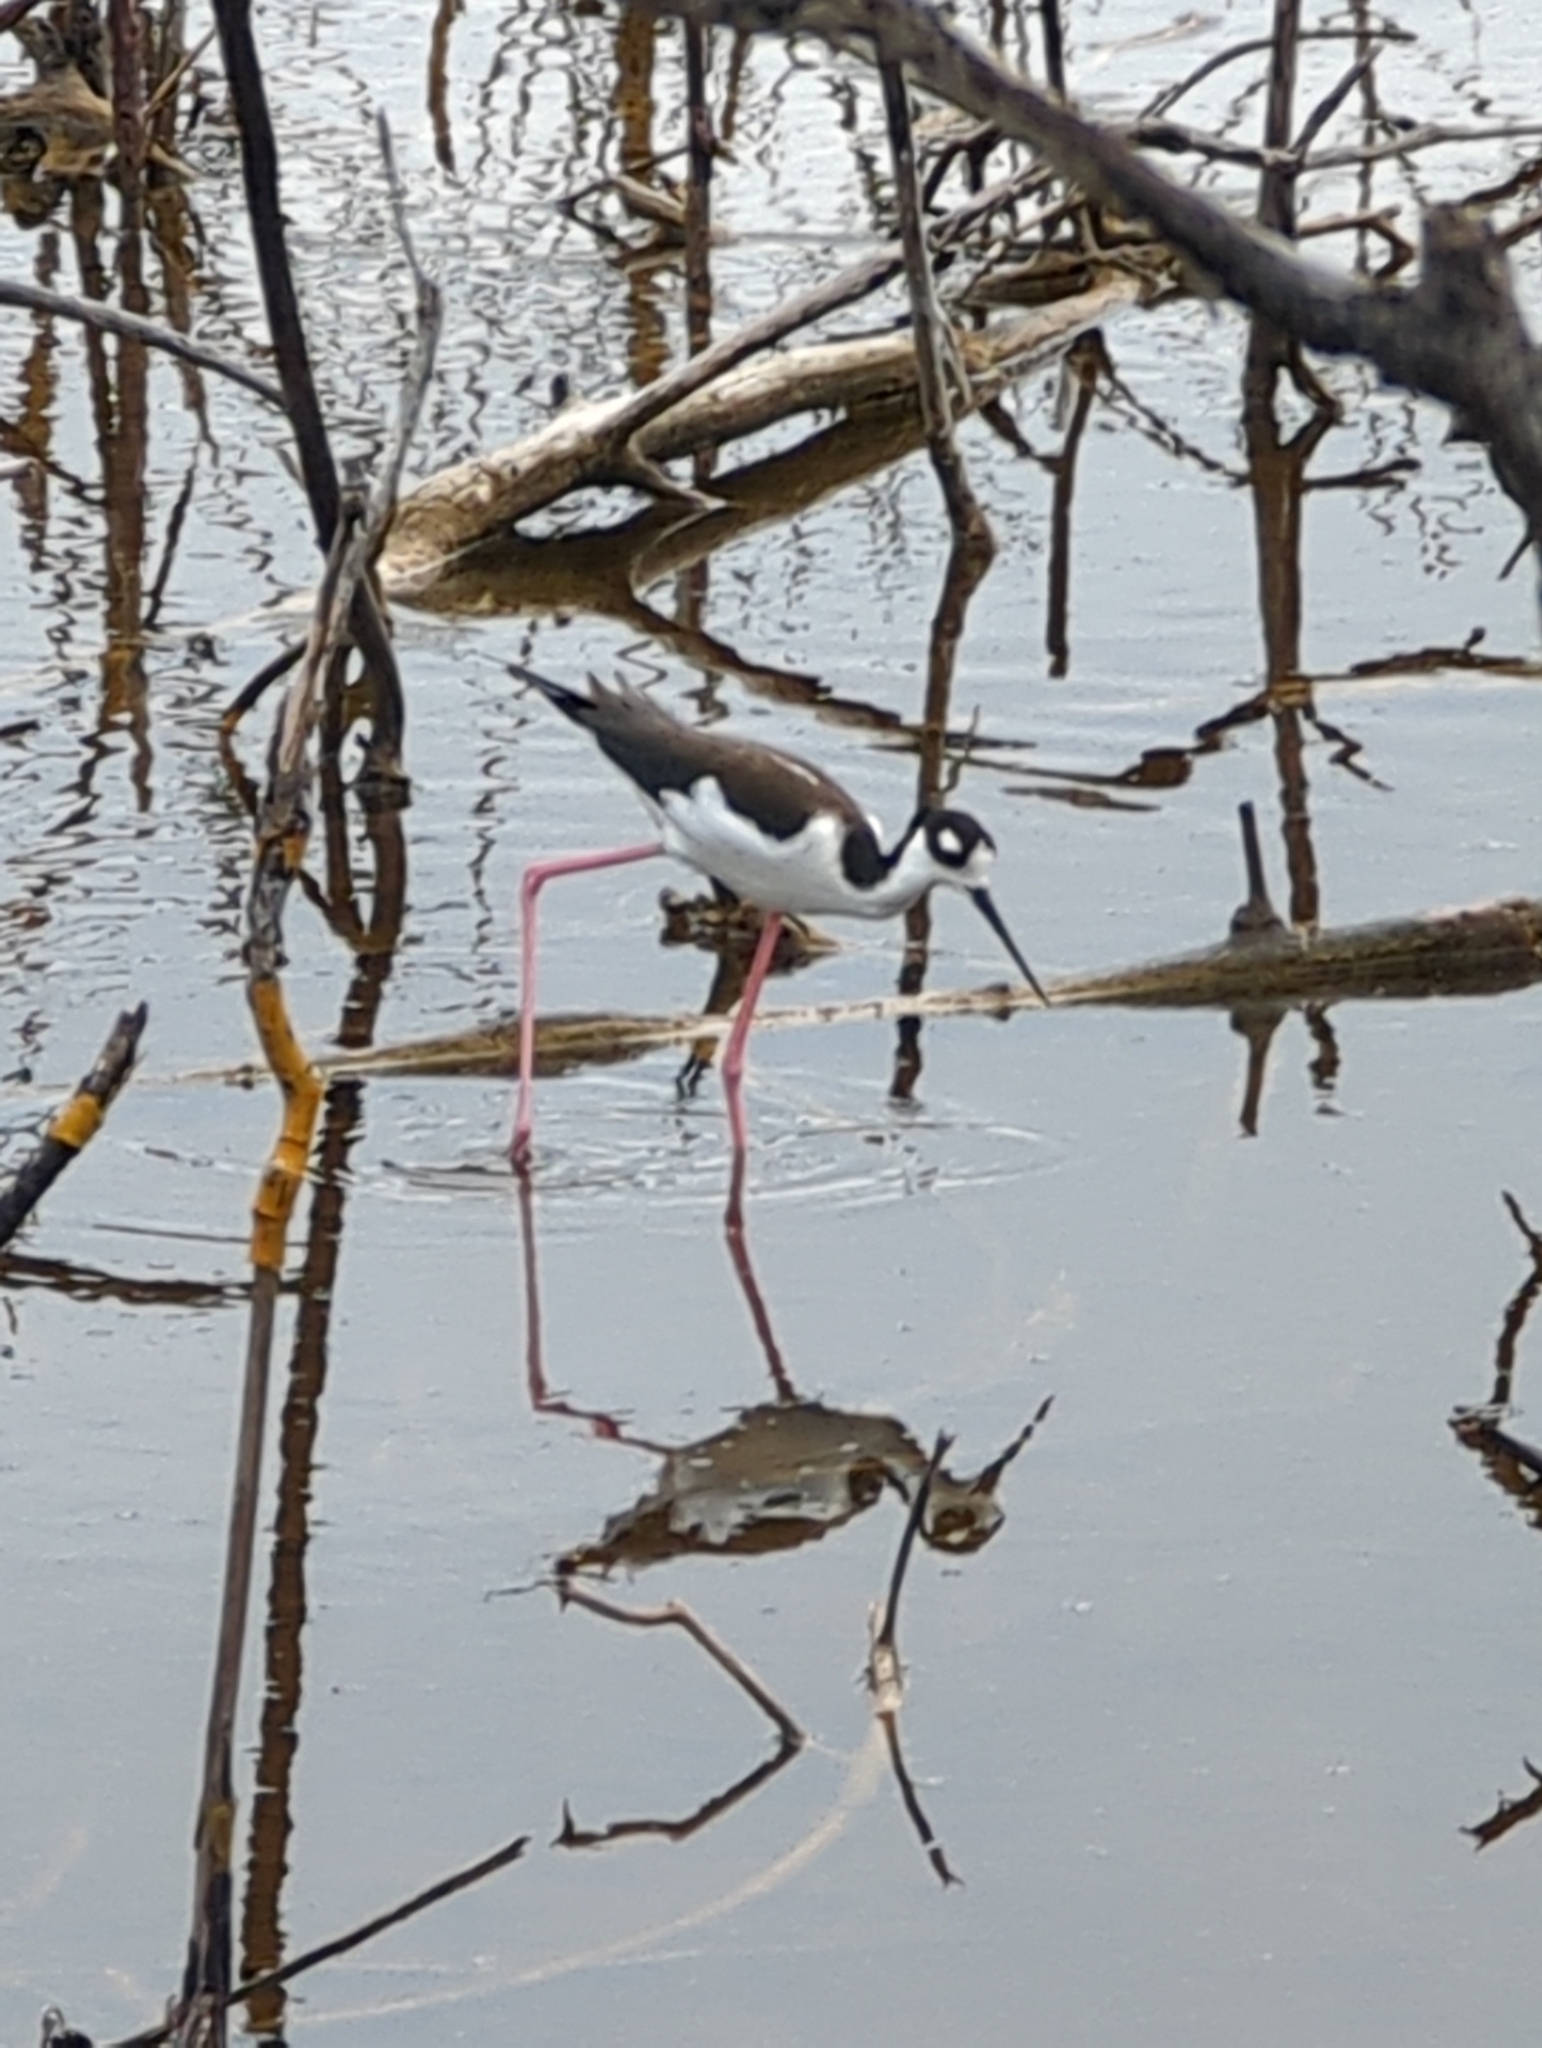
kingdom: Animalia
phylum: Chordata
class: Aves
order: Charadriiformes
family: Recurvirostridae
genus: Himantopus
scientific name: Himantopus mexicanus
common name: Black-necked stilt
